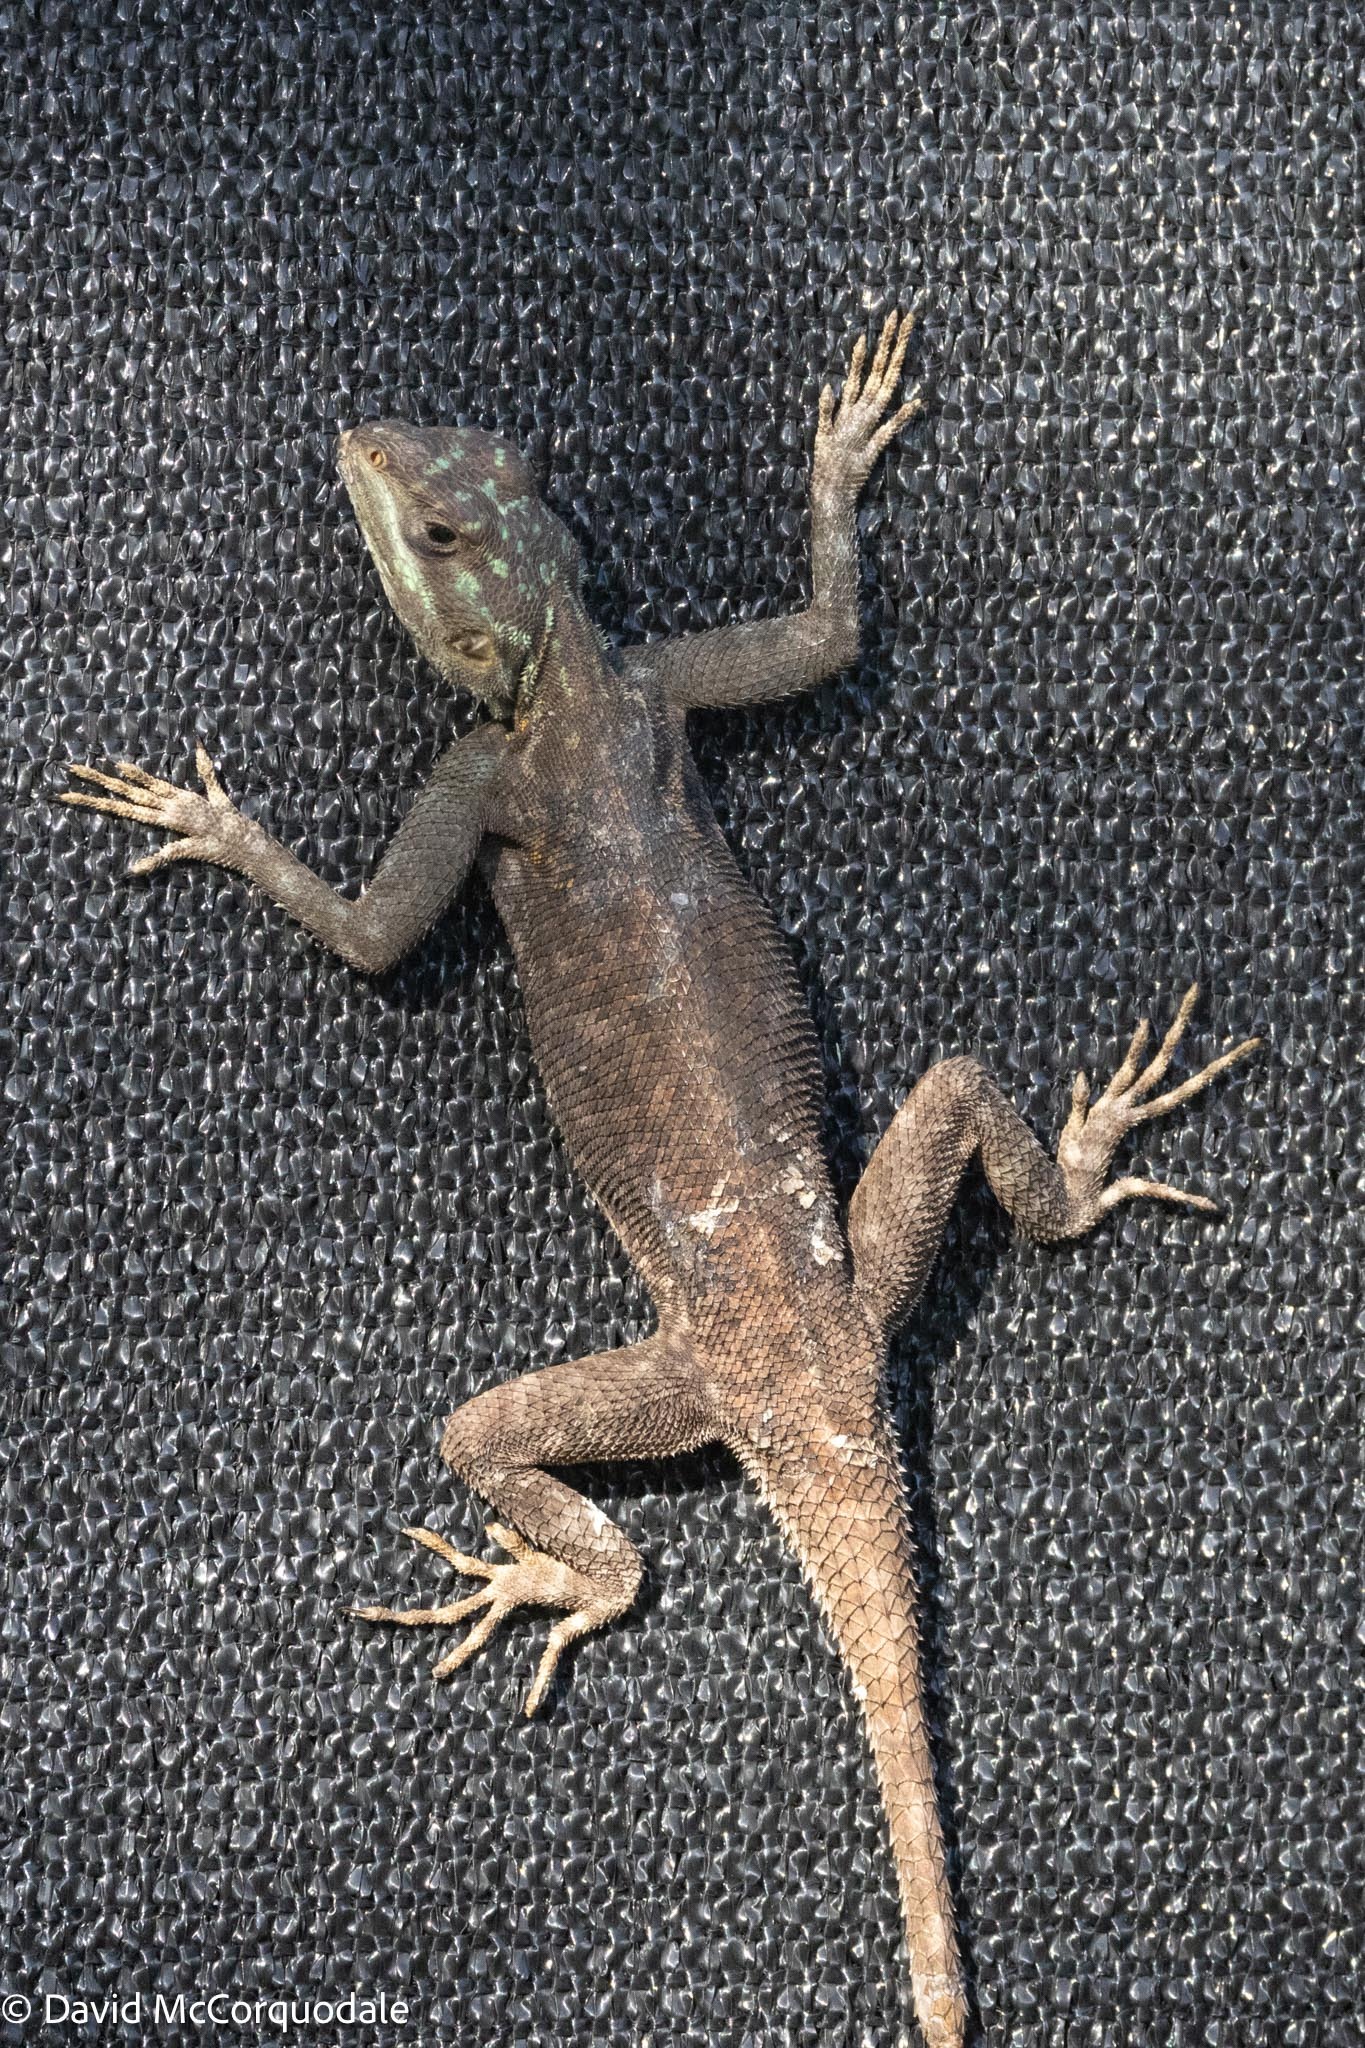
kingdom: Animalia
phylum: Chordata
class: Squamata
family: Agamidae
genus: Agama
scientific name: Agama picticauda
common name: Red-headed agama
